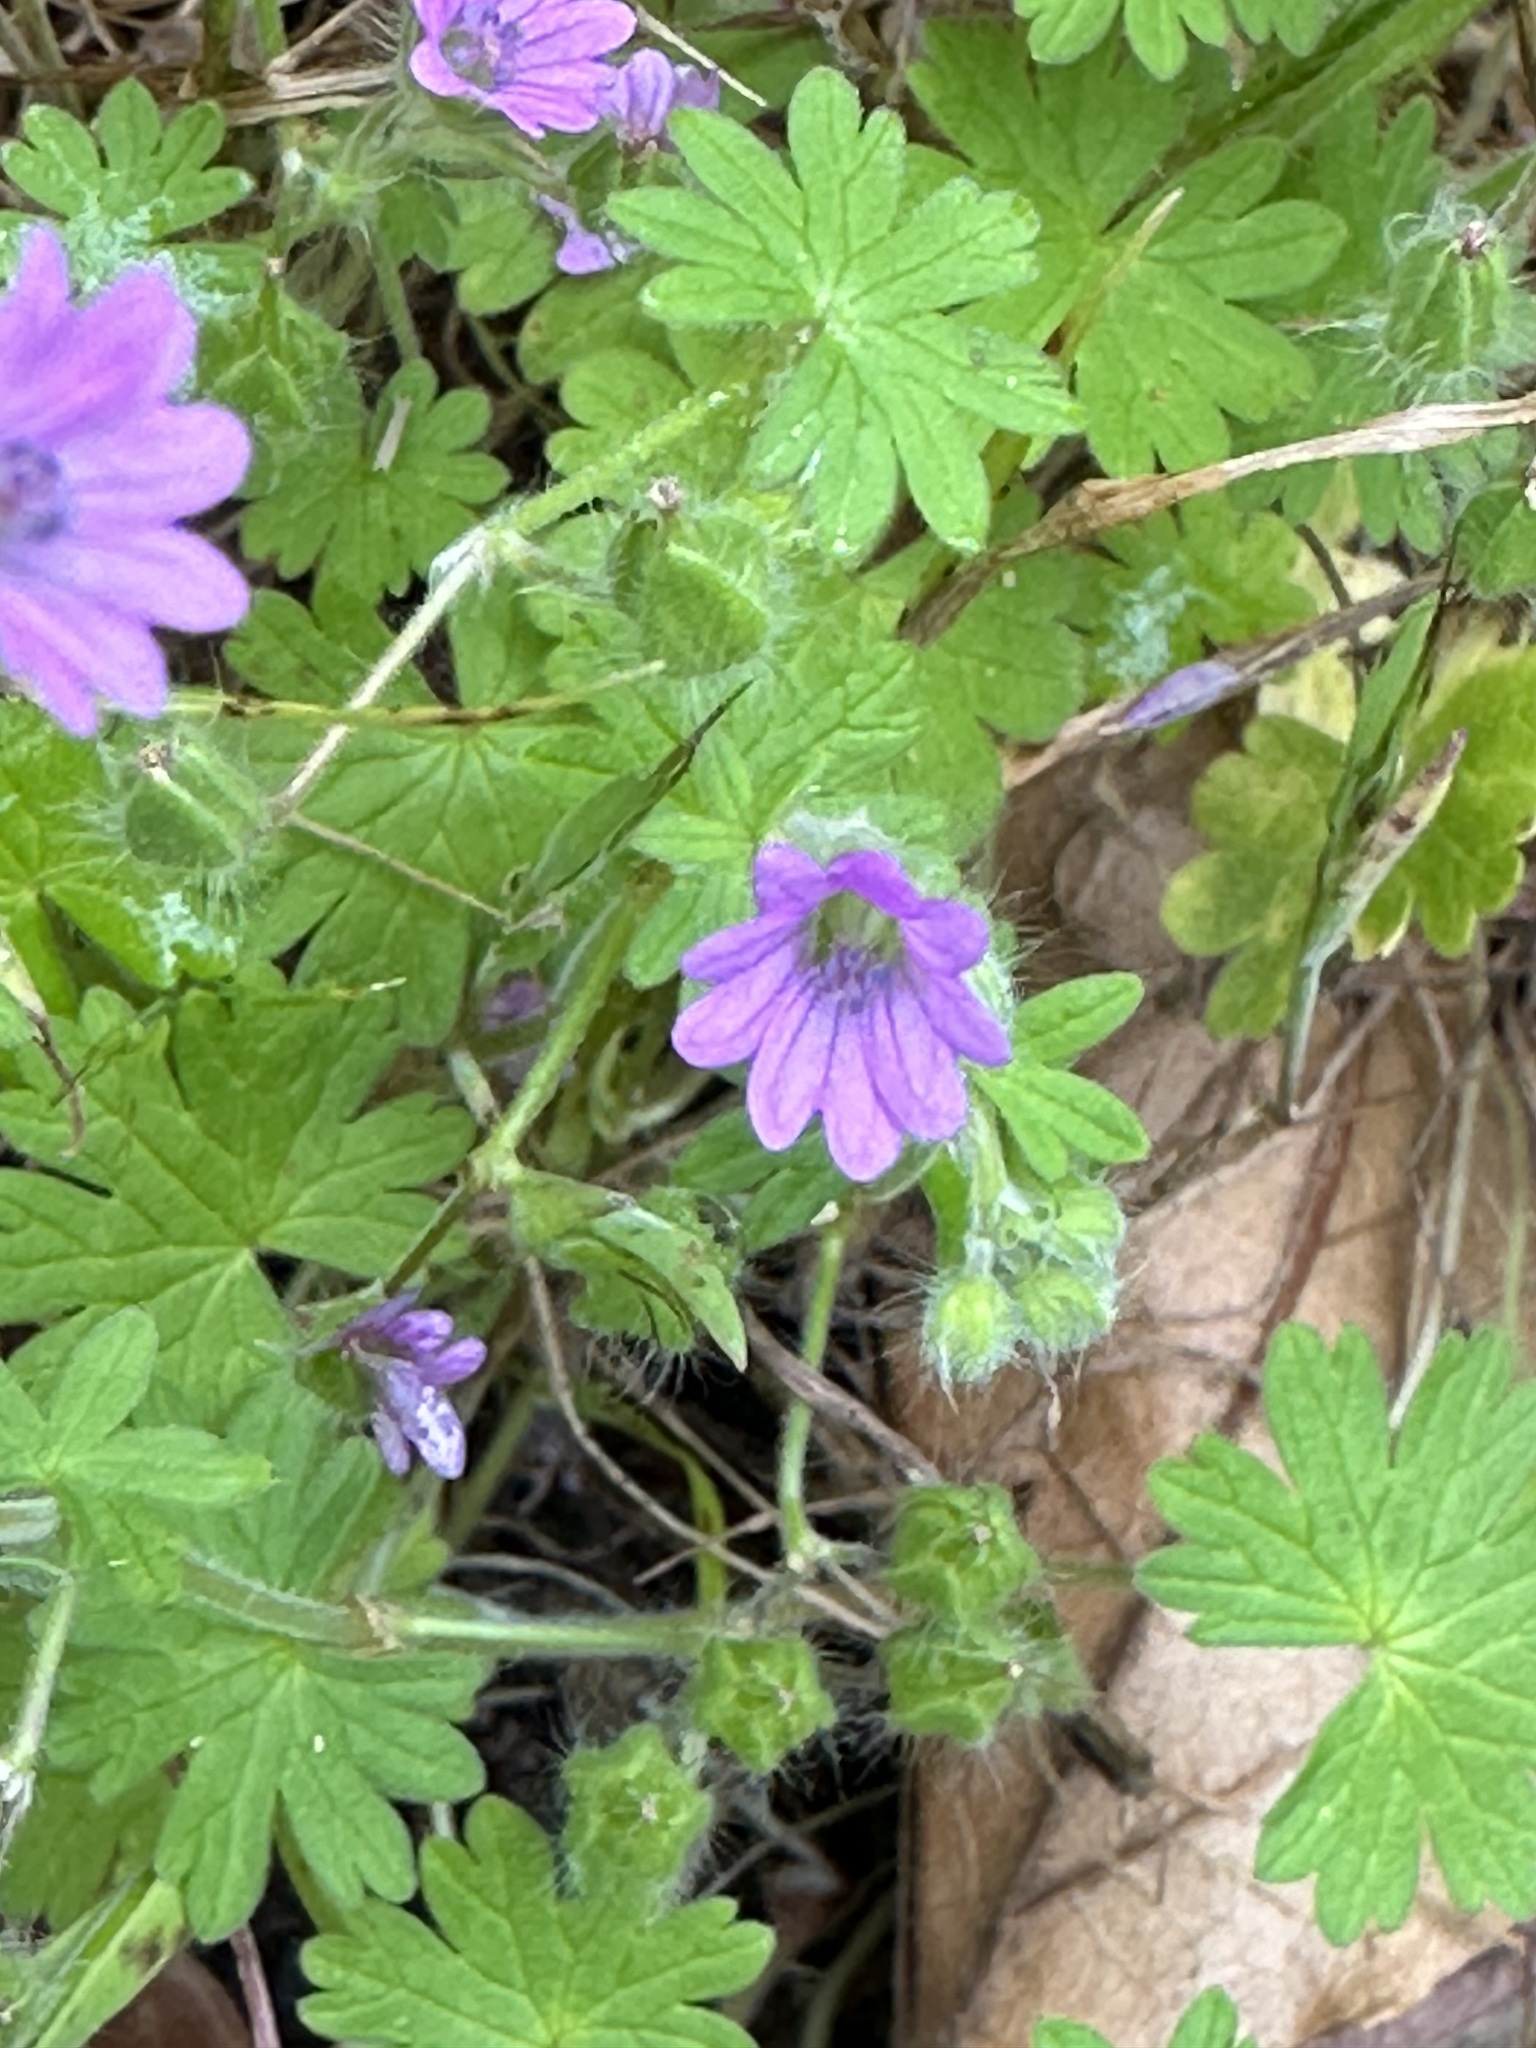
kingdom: Plantae
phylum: Tracheophyta
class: Magnoliopsida
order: Geraniales
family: Geraniaceae
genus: Geranium
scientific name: Geranium molle
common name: Dove's-foot crane's-bill
